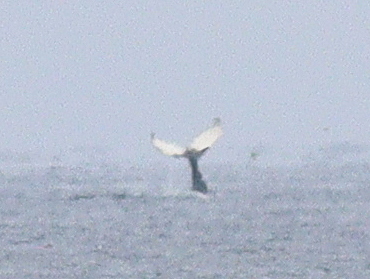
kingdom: Animalia
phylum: Chordata
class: Mammalia
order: Cetacea
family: Balaenopteridae
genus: Megaptera
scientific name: Megaptera novaeangliae
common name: Humpback whale
